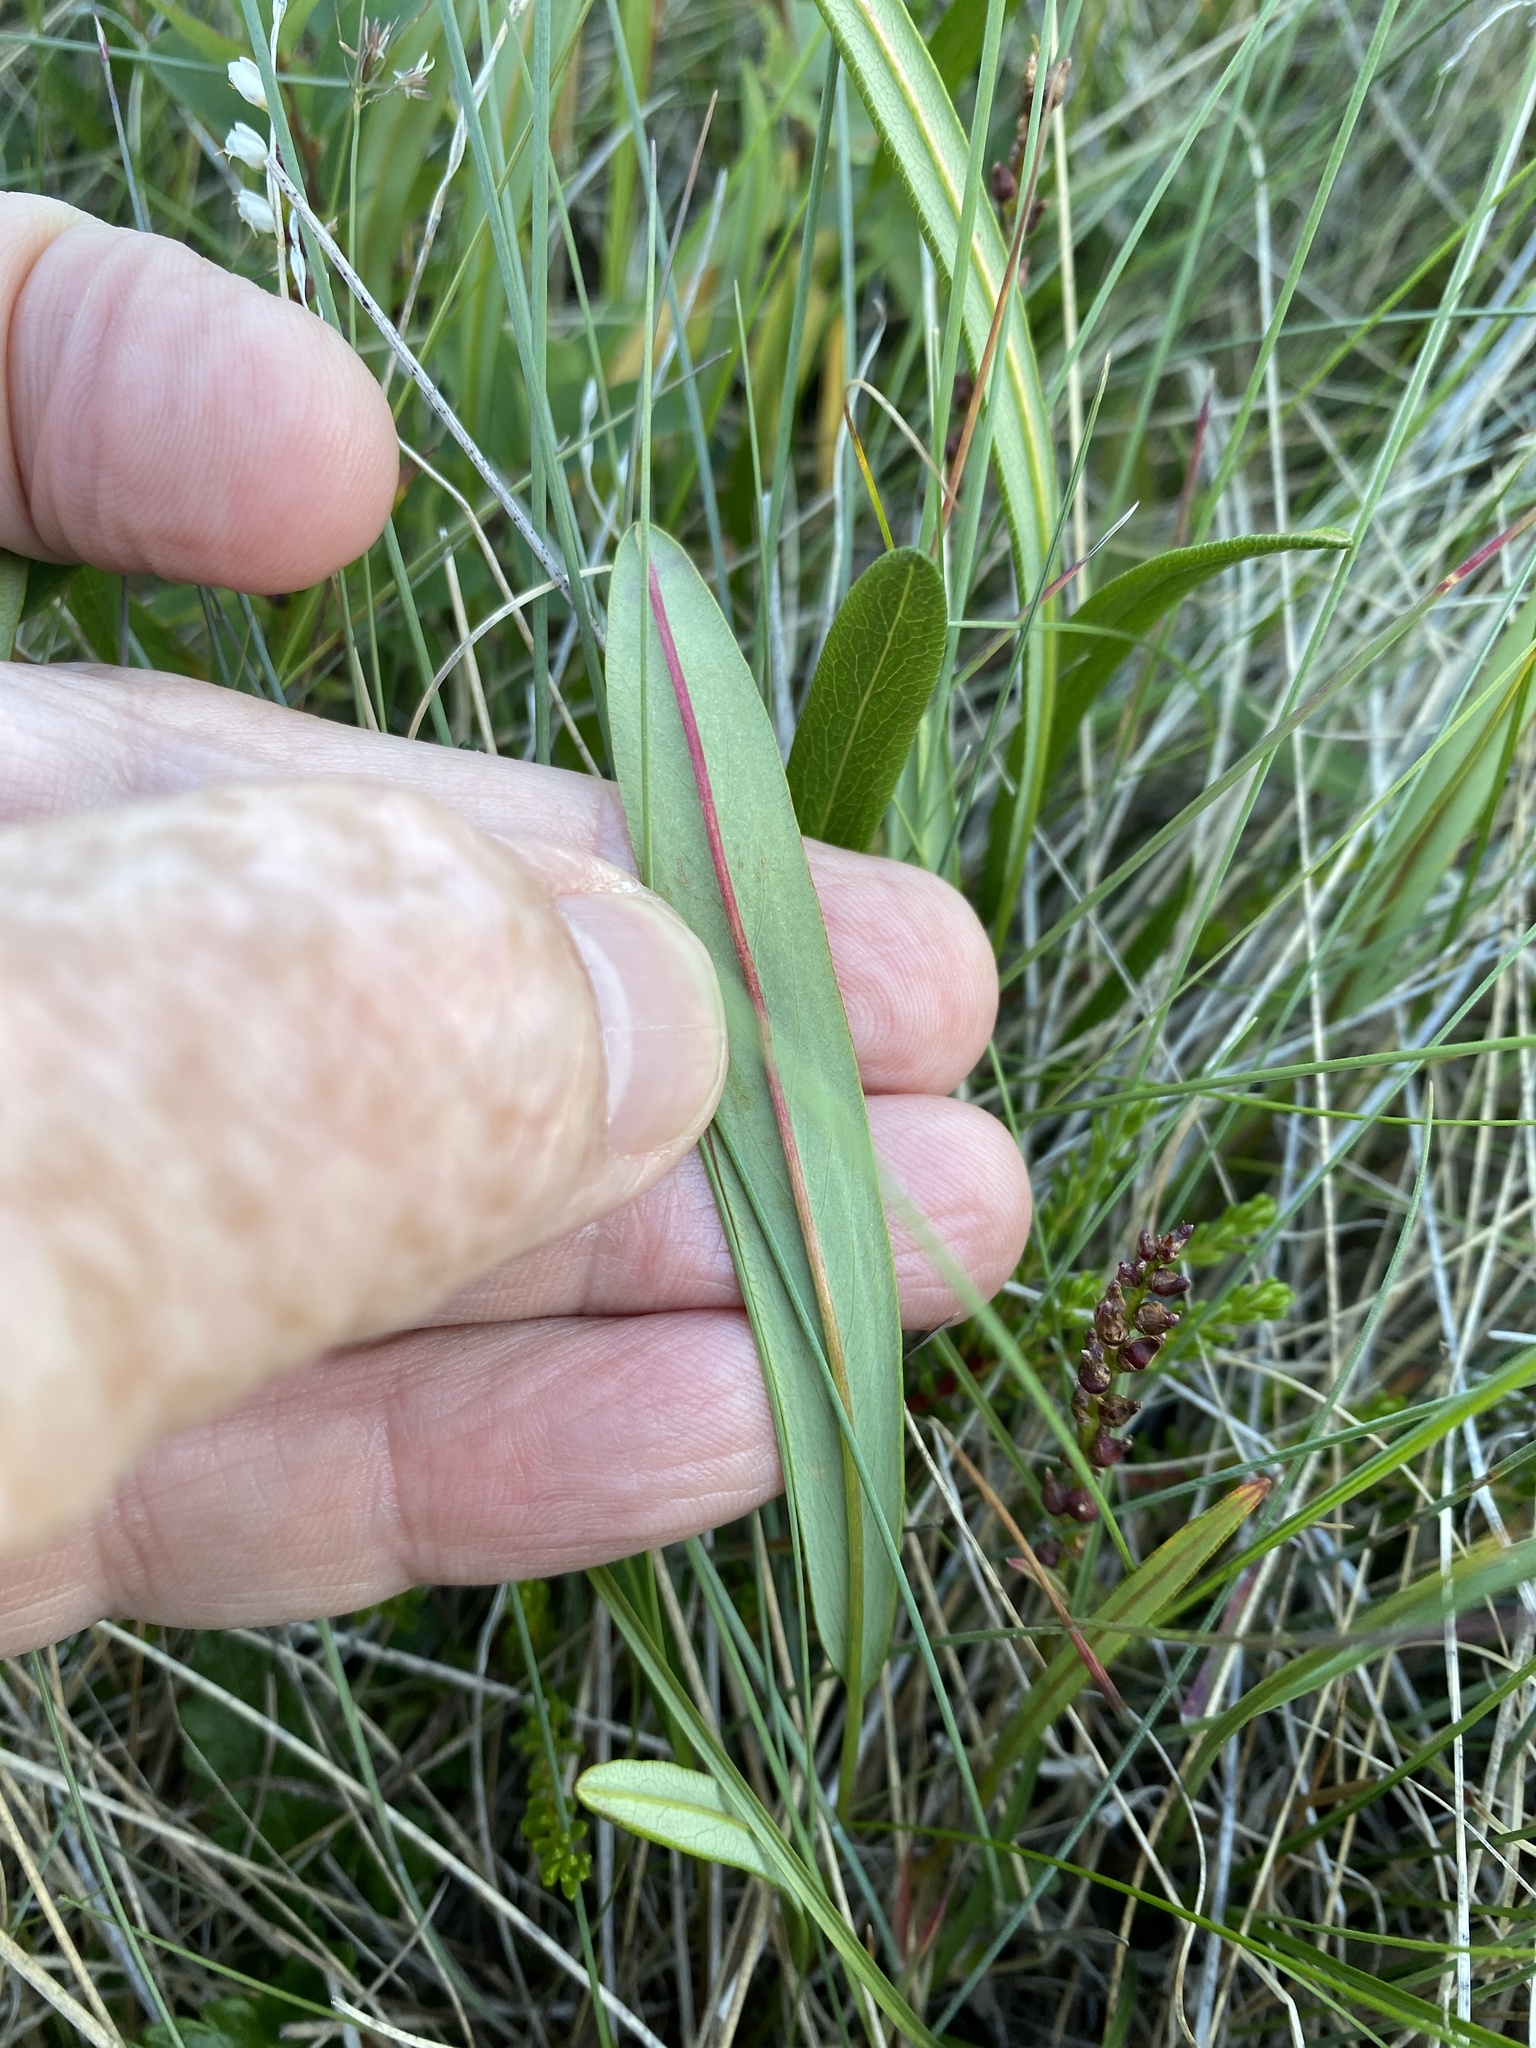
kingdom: Plantae
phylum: Tracheophyta
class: Magnoliopsida
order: Caryophyllales
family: Polygonaceae
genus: Bistorta
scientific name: Bistorta vivipara
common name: Alpine bistort
